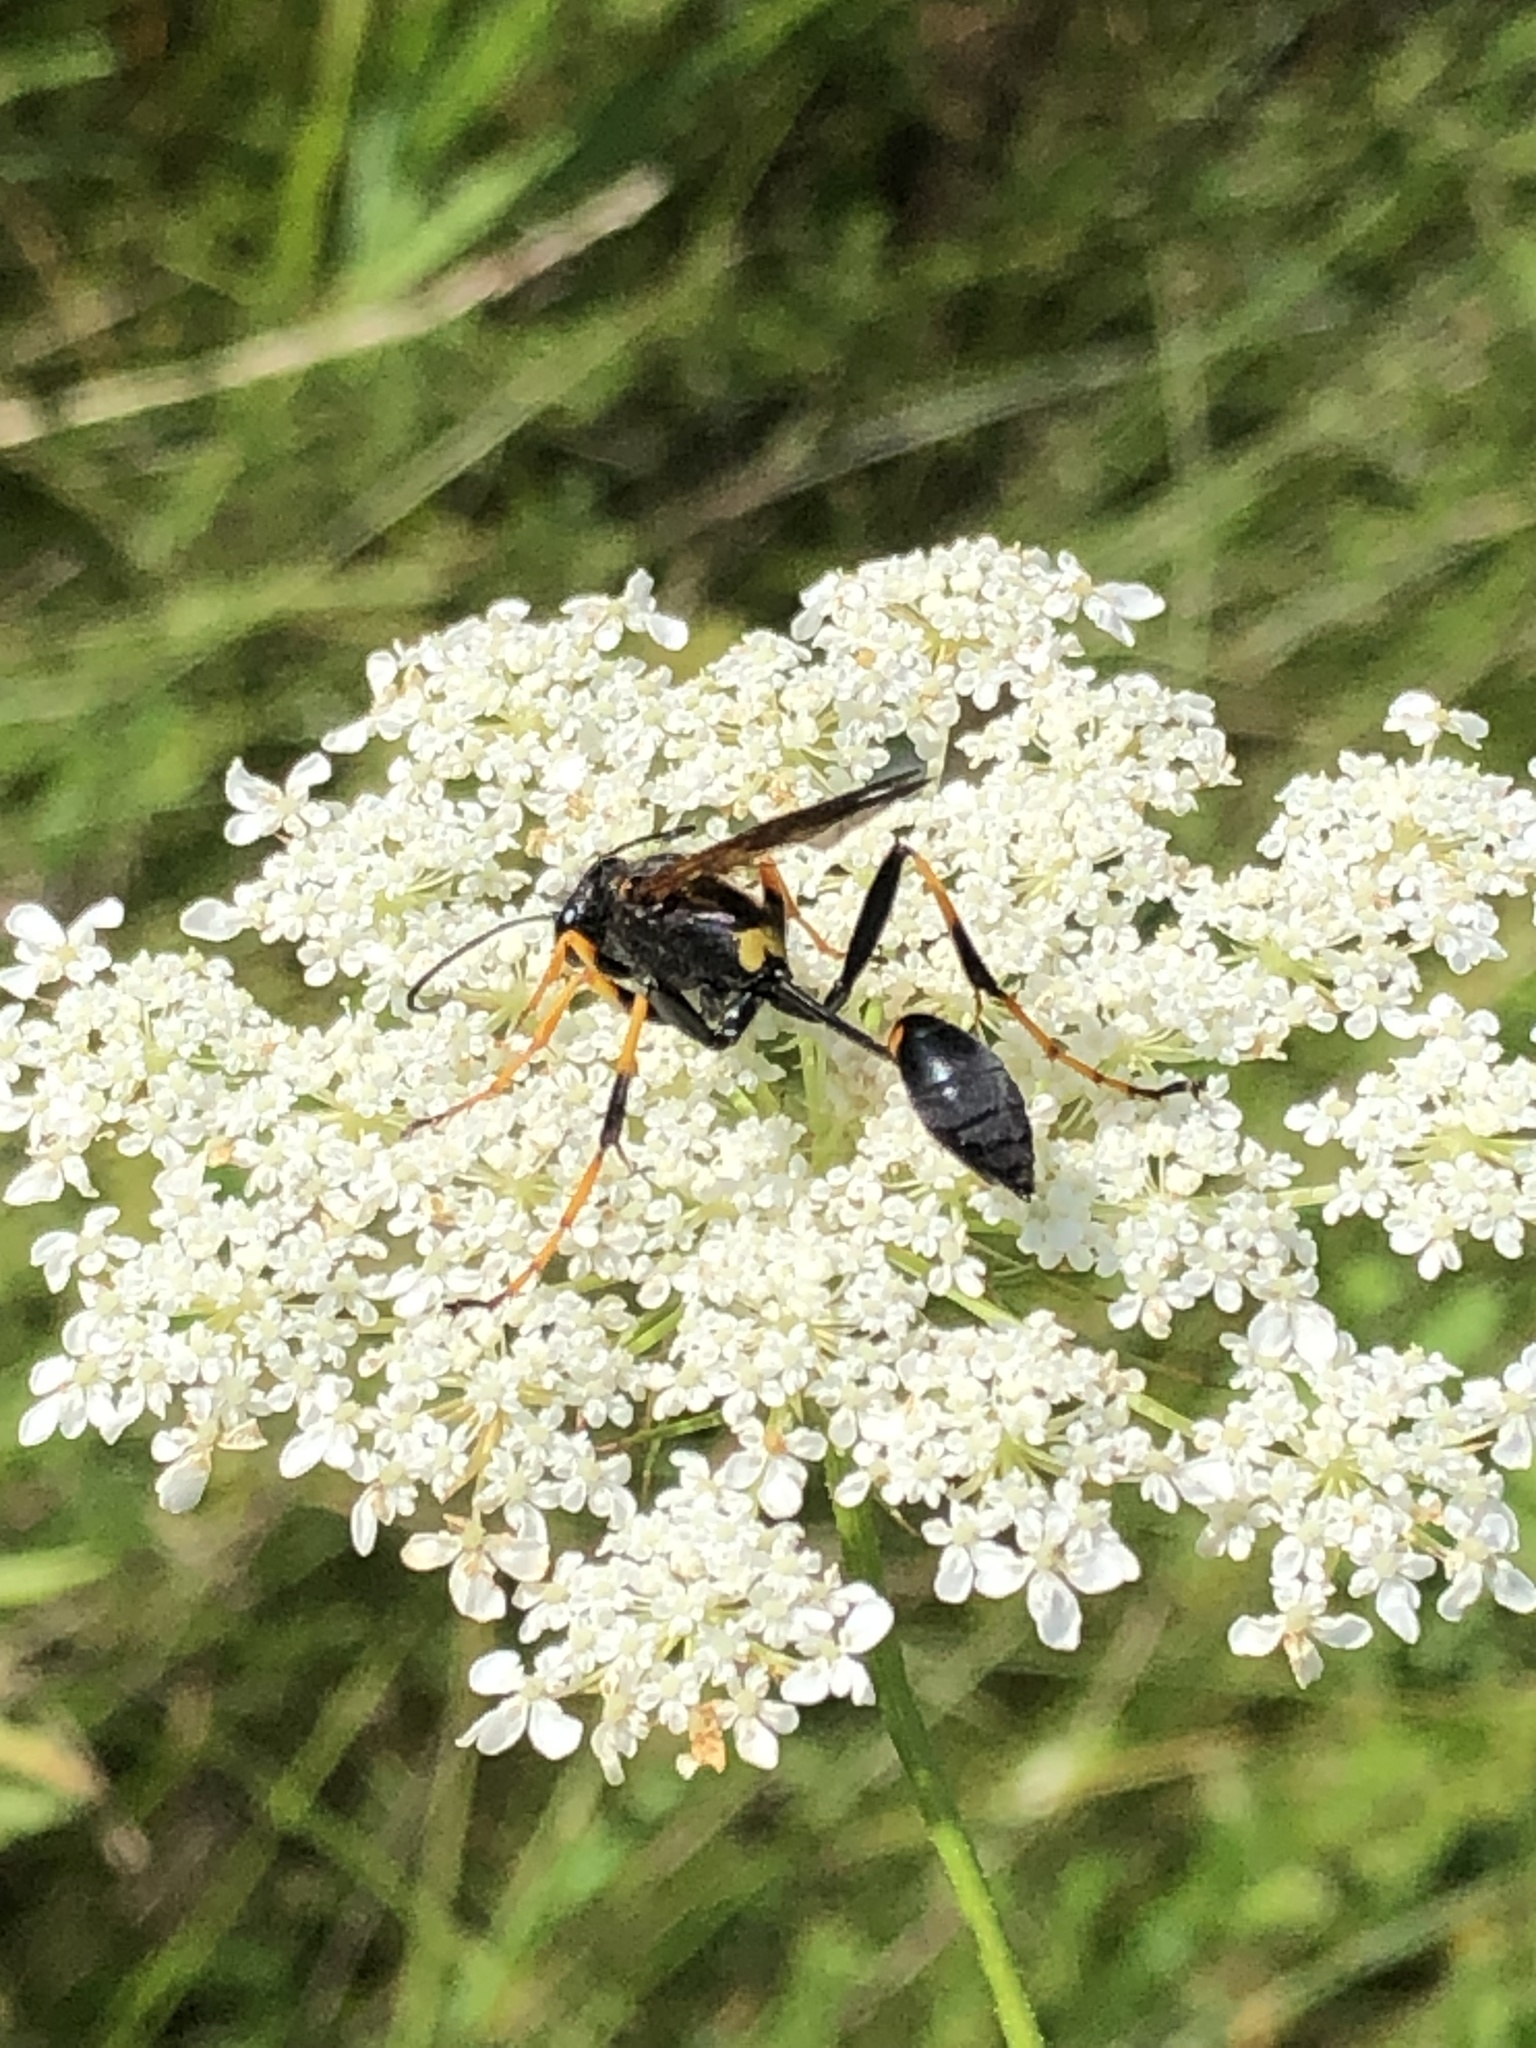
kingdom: Animalia
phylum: Arthropoda
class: Insecta
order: Hymenoptera
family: Sphecidae
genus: Sceliphron
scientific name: Sceliphron caementarium
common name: Mud dauber
